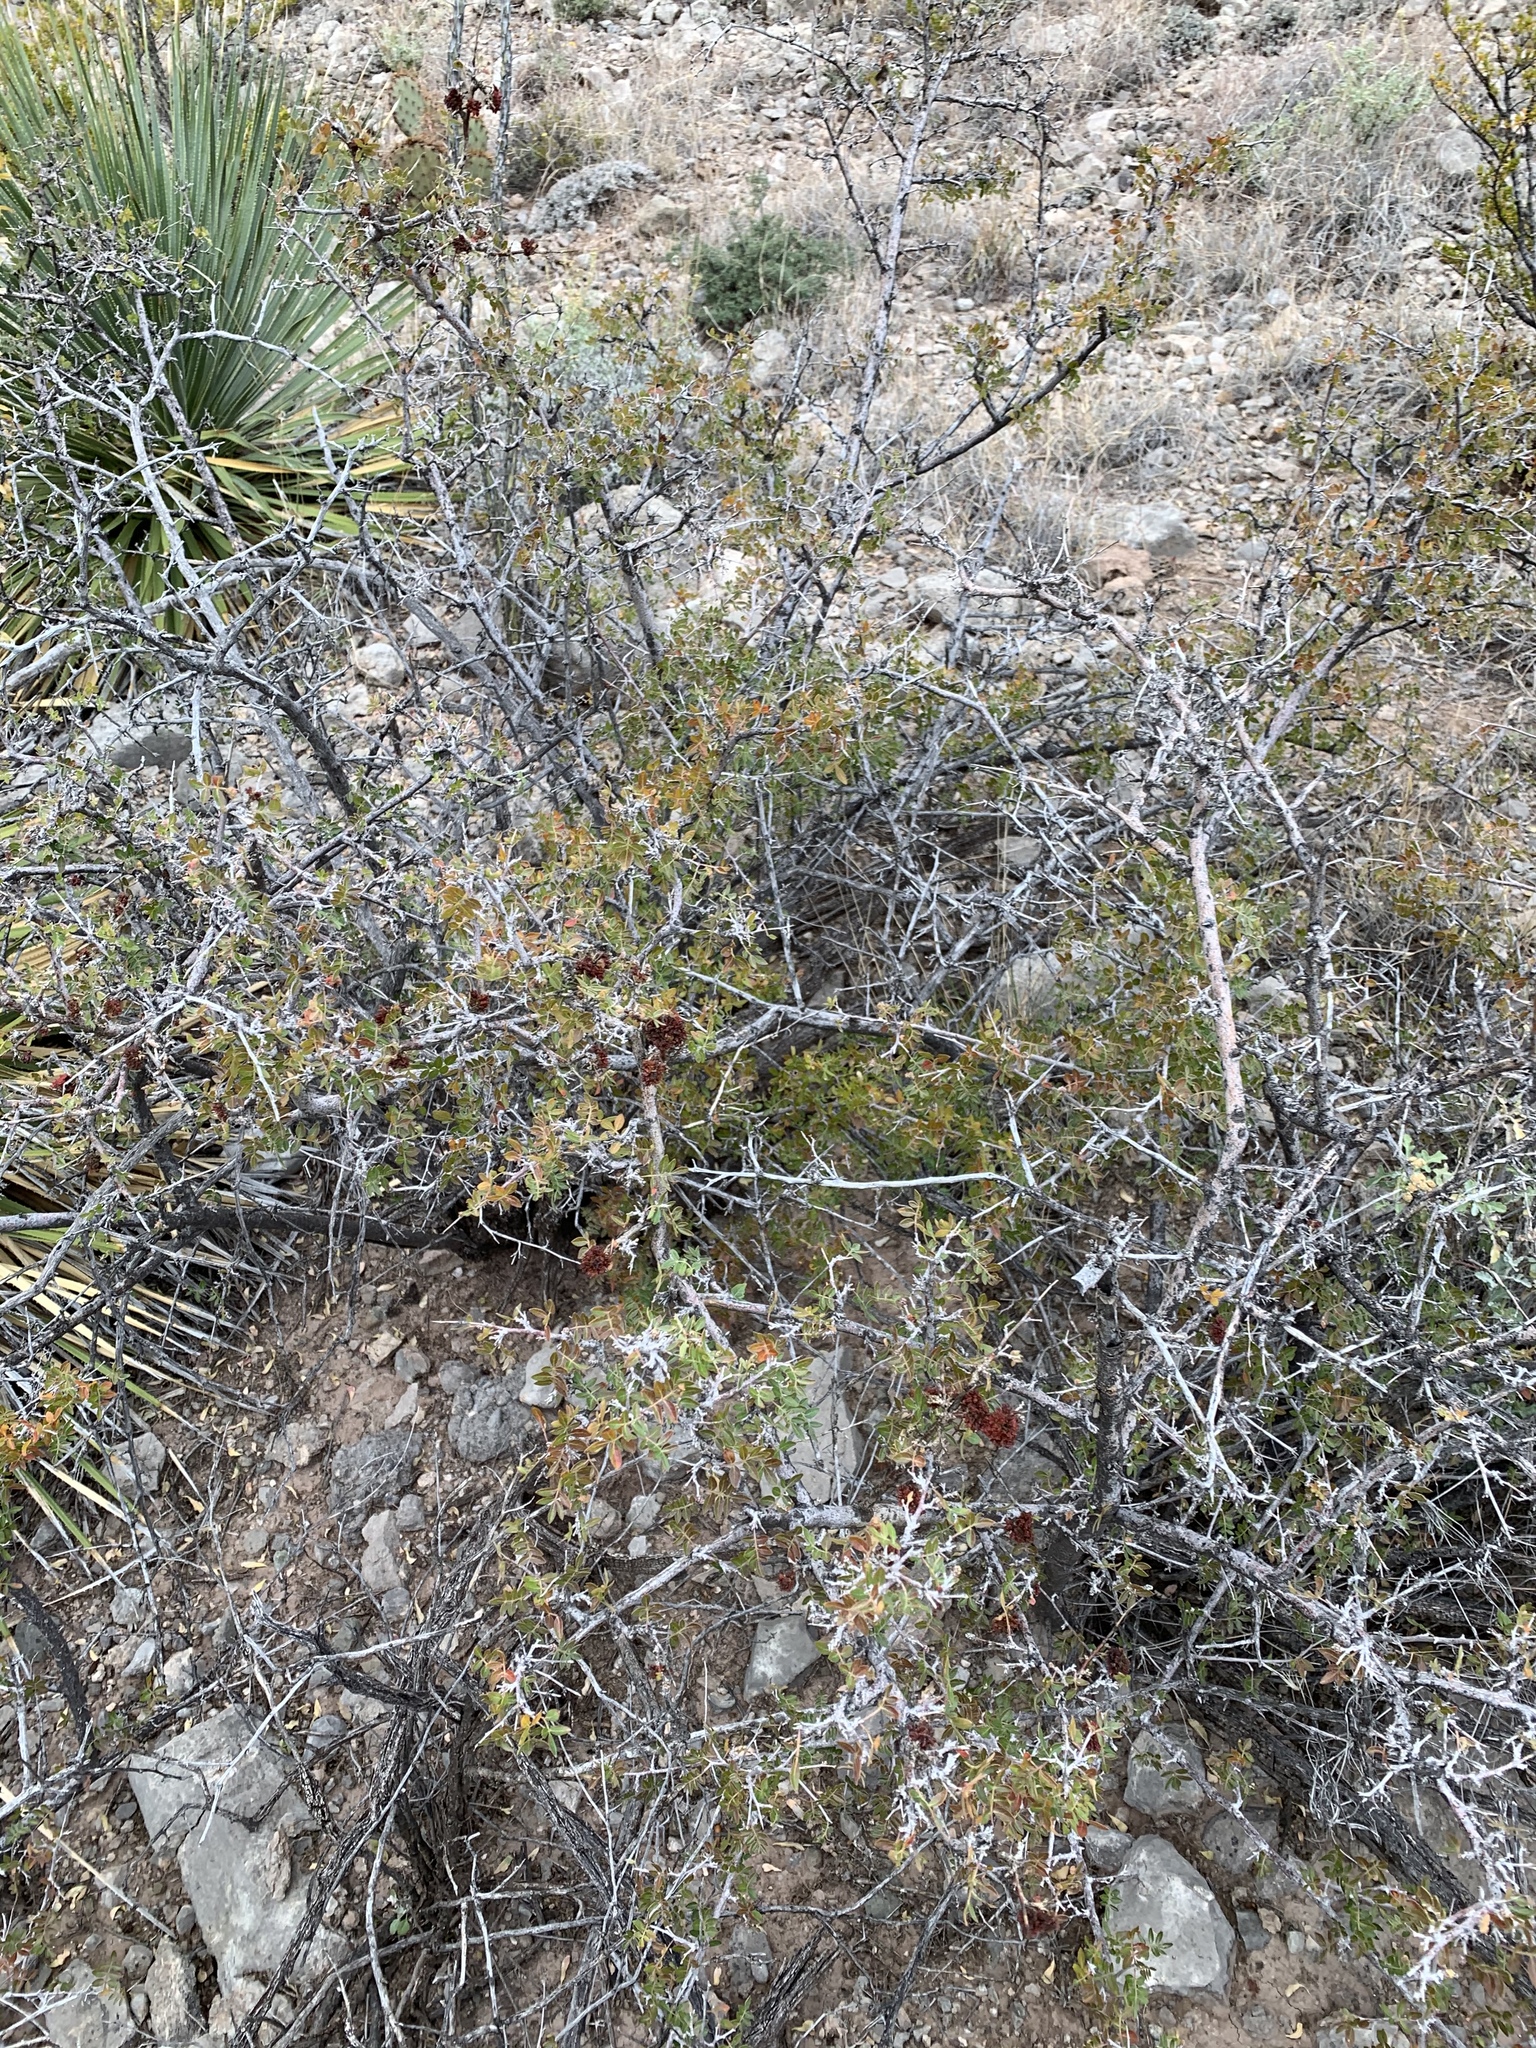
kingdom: Plantae
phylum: Tracheophyta
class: Magnoliopsida
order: Sapindales
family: Anacardiaceae
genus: Rhus
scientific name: Rhus microphylla
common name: Desert sumac
